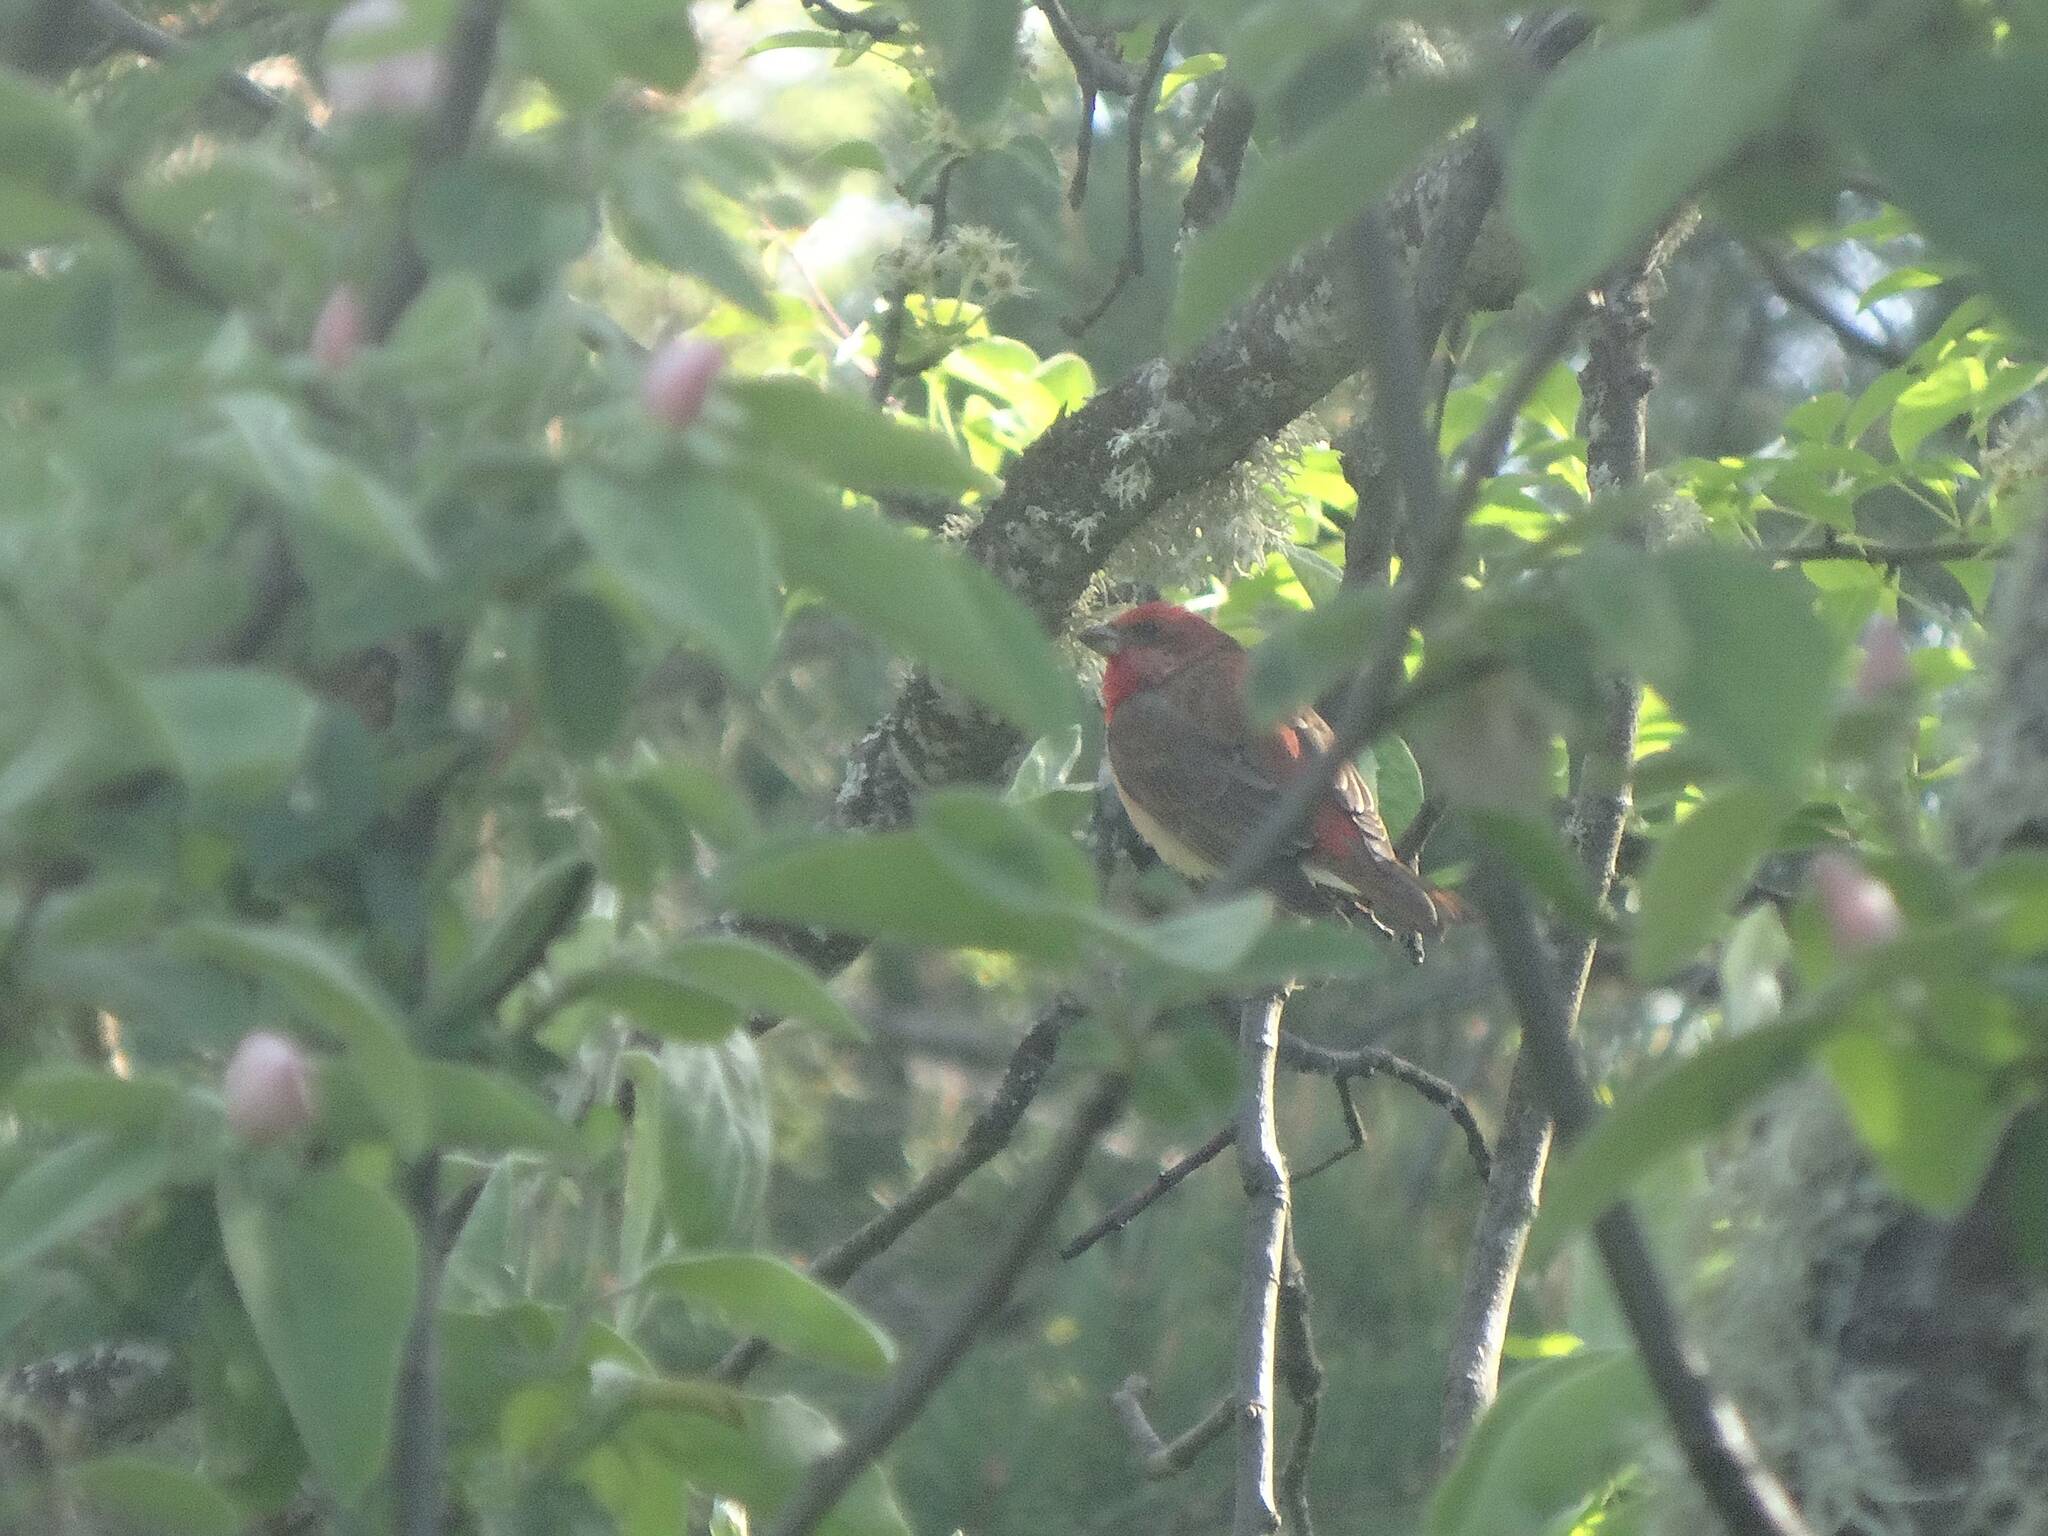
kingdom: Animalia
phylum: Chordata
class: Aves
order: Passeriformes
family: Fringillidae
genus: Carpodacus
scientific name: Carpodacus erythrinus
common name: Common rosefinch
